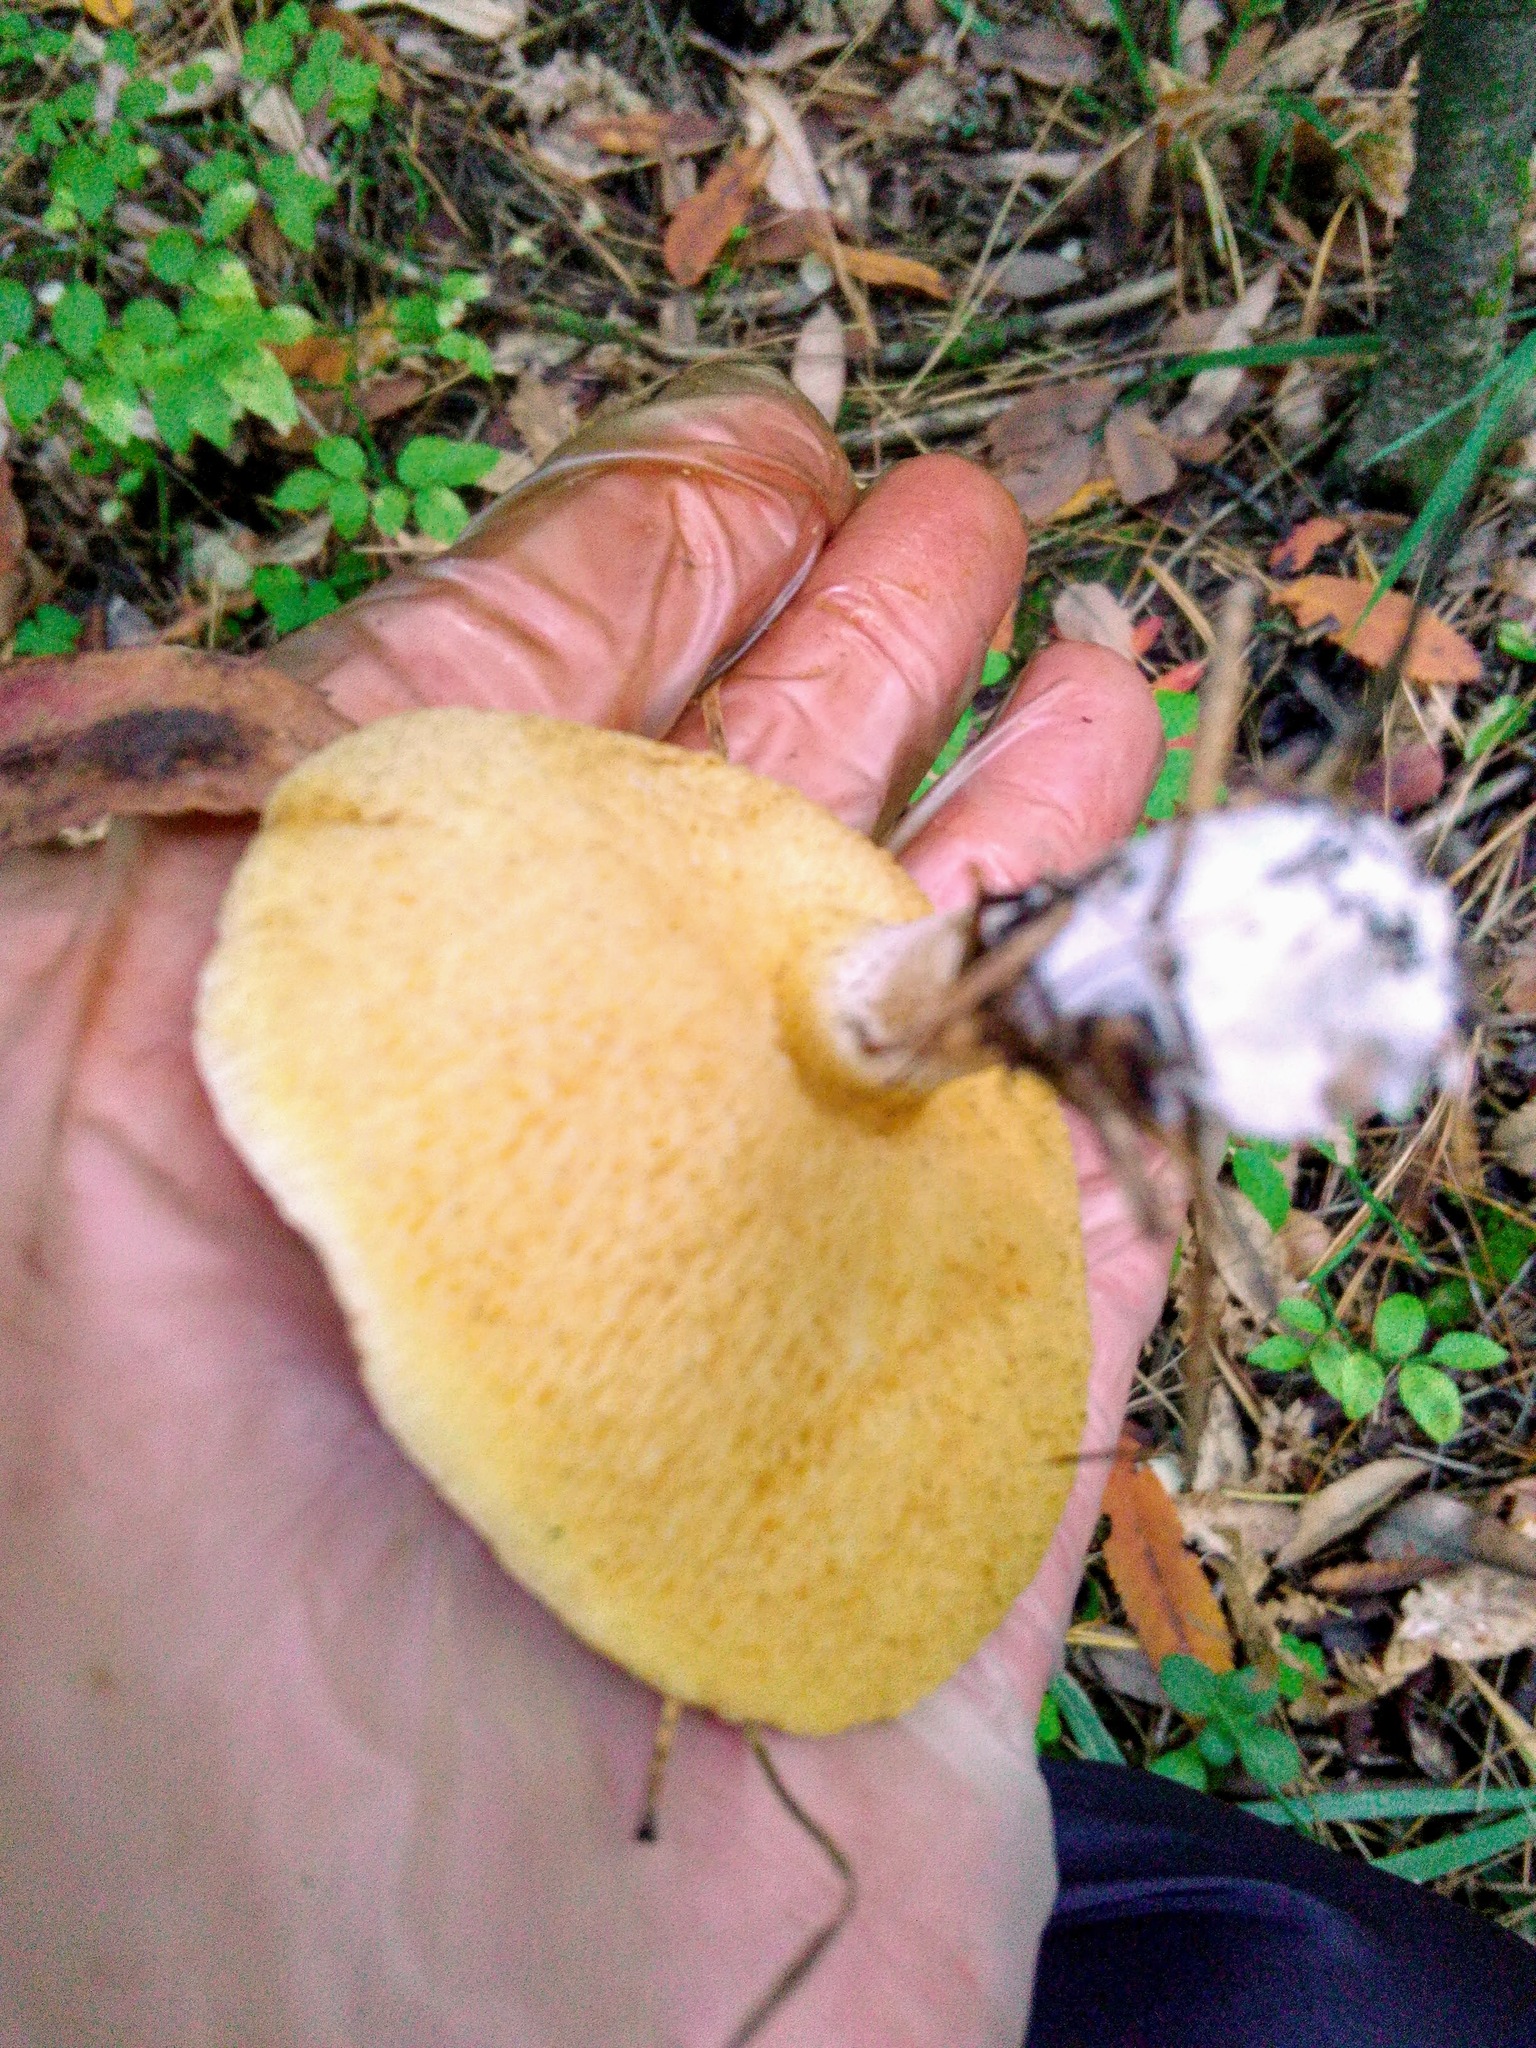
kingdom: Fungi
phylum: Basidiomycota
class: Agaricomycetes
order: Boletales
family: Suillaceae
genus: Suillus
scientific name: Suillus placidus
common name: Slippery white bolete
